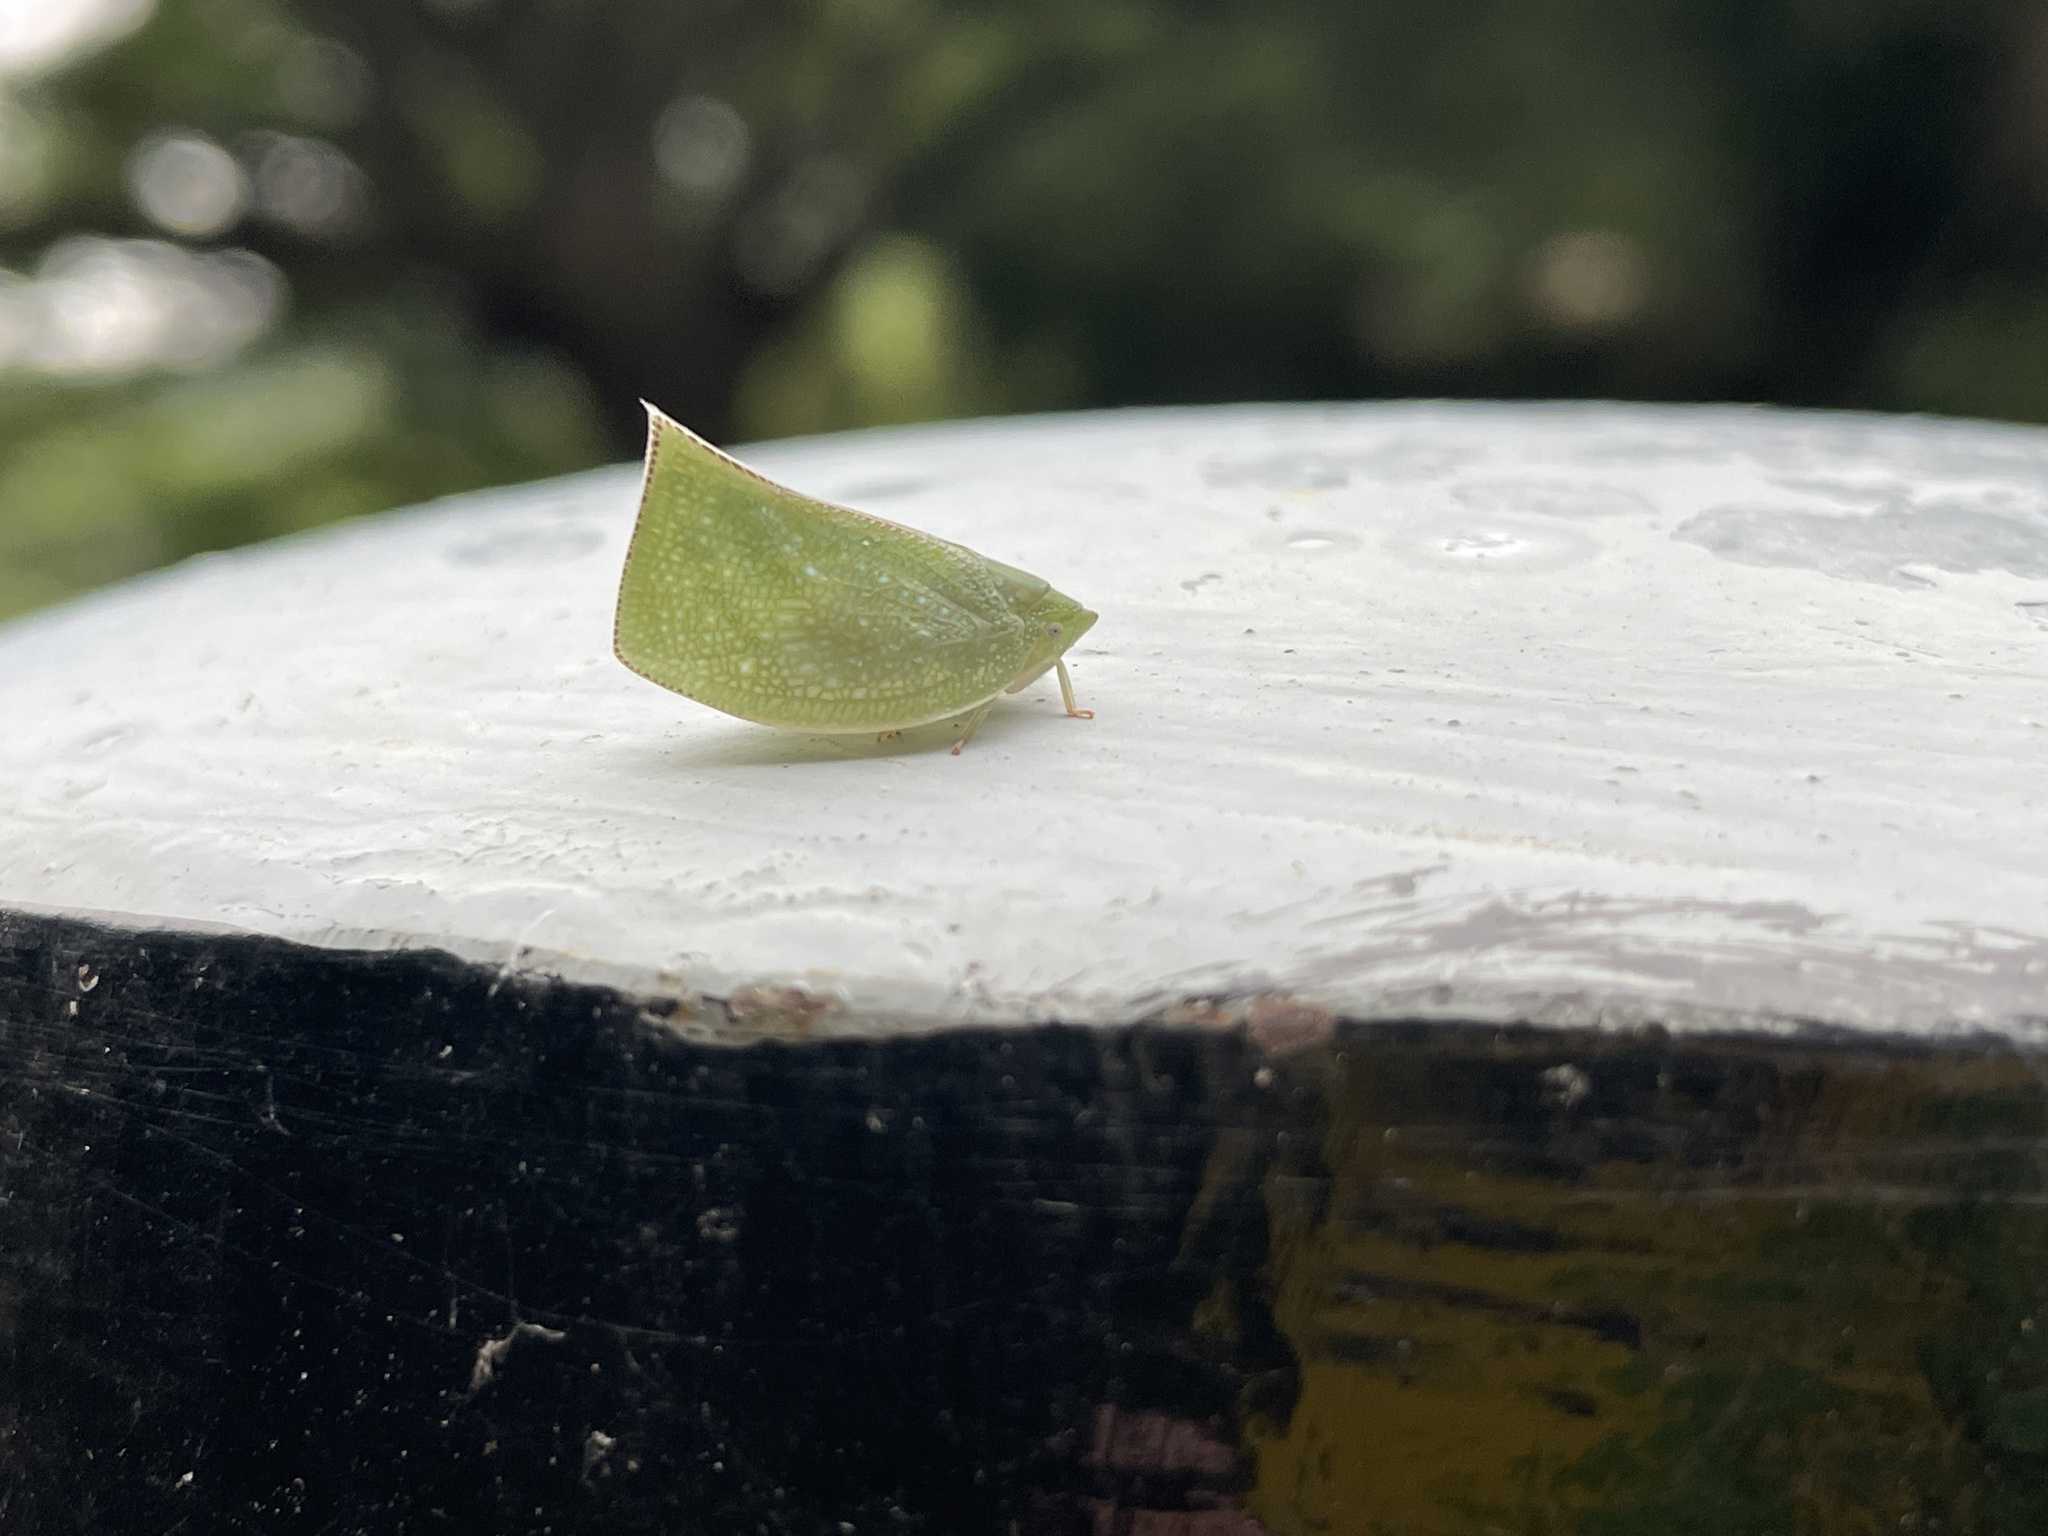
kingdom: Animalia
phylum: Arthropoda
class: Insecta
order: Hemiptera
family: Flatidae
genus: Cromna
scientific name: Cromna sinensis
